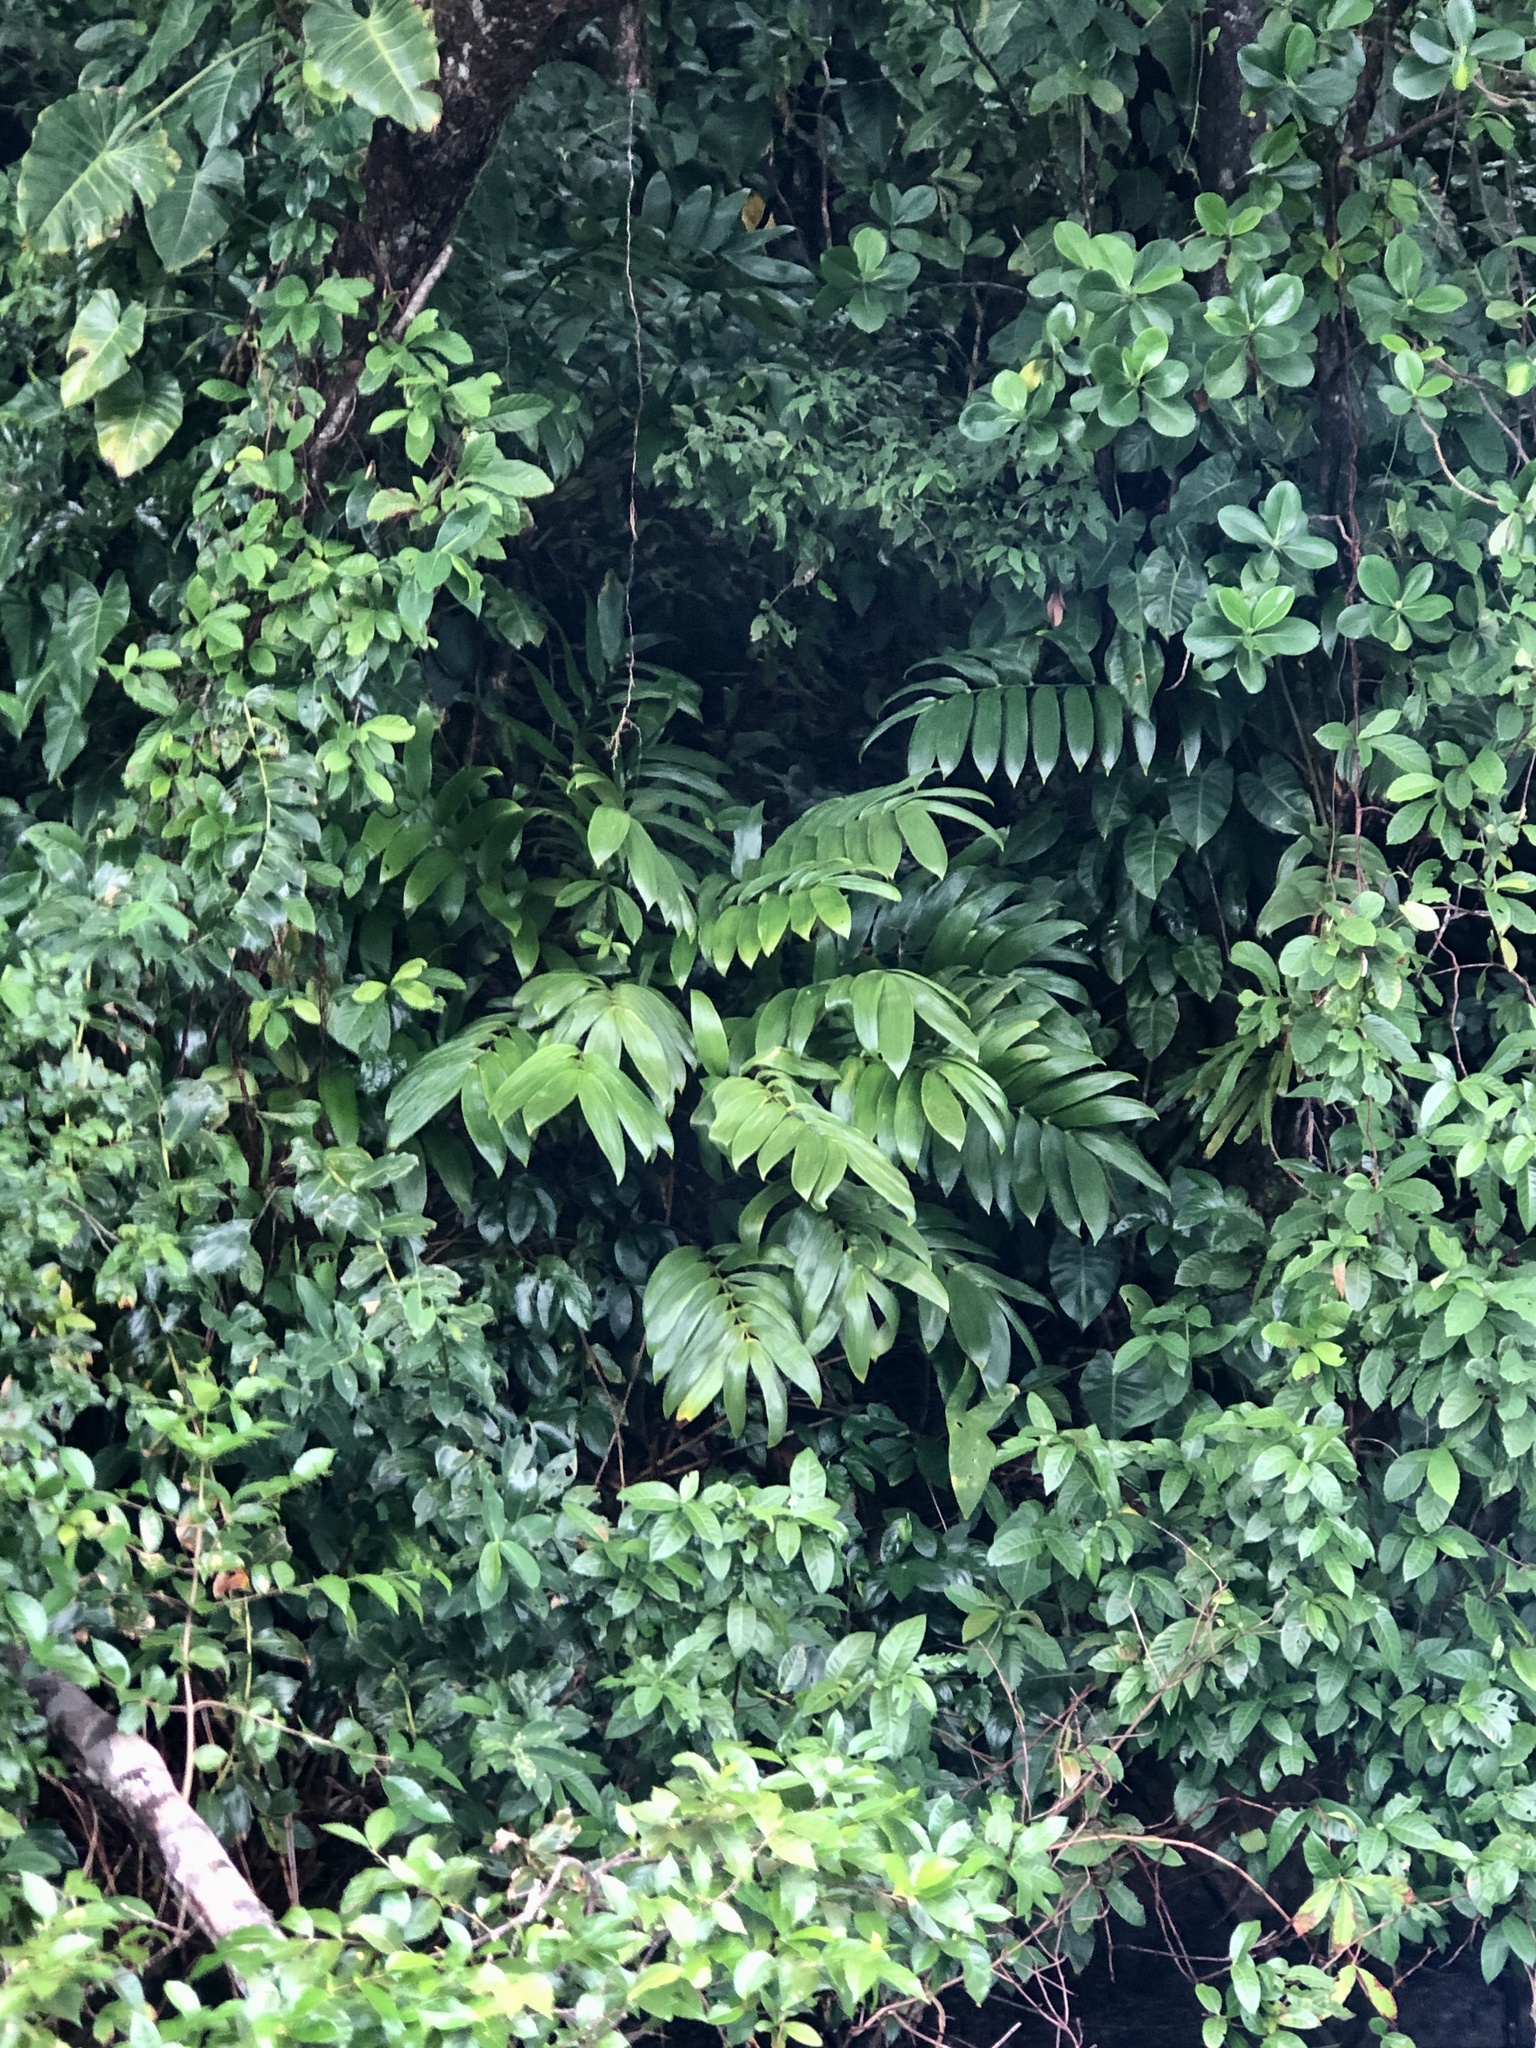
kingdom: Plantae
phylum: Tracheophyta
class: Cycadopsida
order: Cycadales
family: Zamiaceae
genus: Zamia
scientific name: Zamia hamannii
